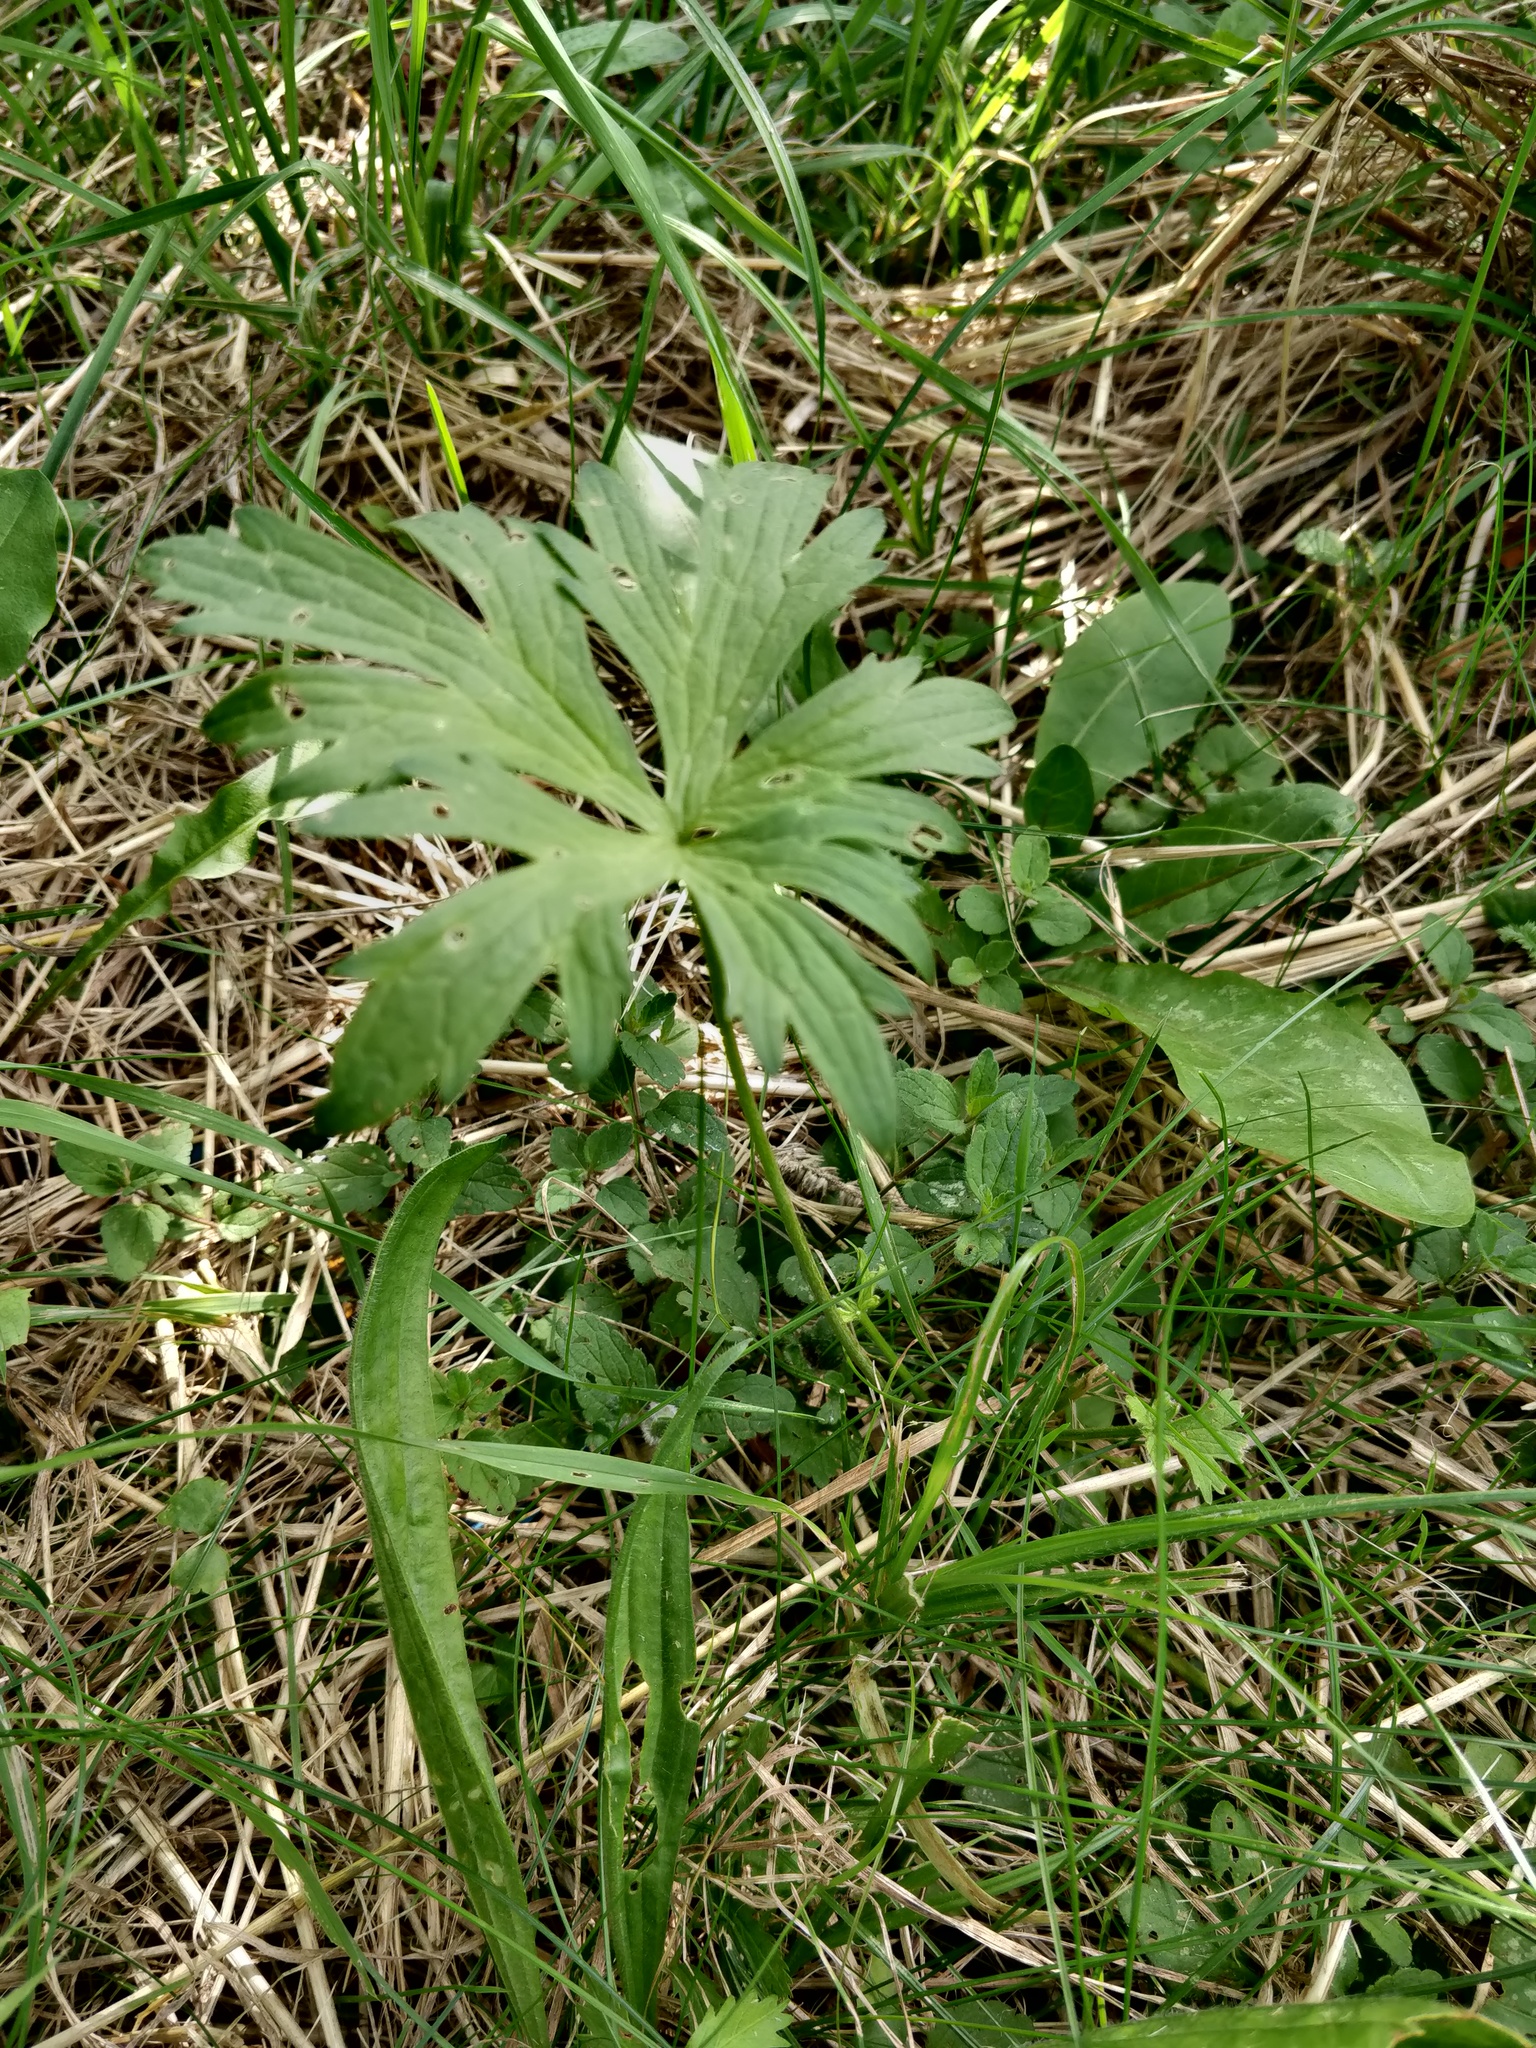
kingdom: Plantae
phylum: Tracheophyta
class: Magnoliopsida
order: Ranunculales
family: Ranunculaceae
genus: Ranunculus
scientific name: Ranunculus acris
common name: Meadow buttercup
